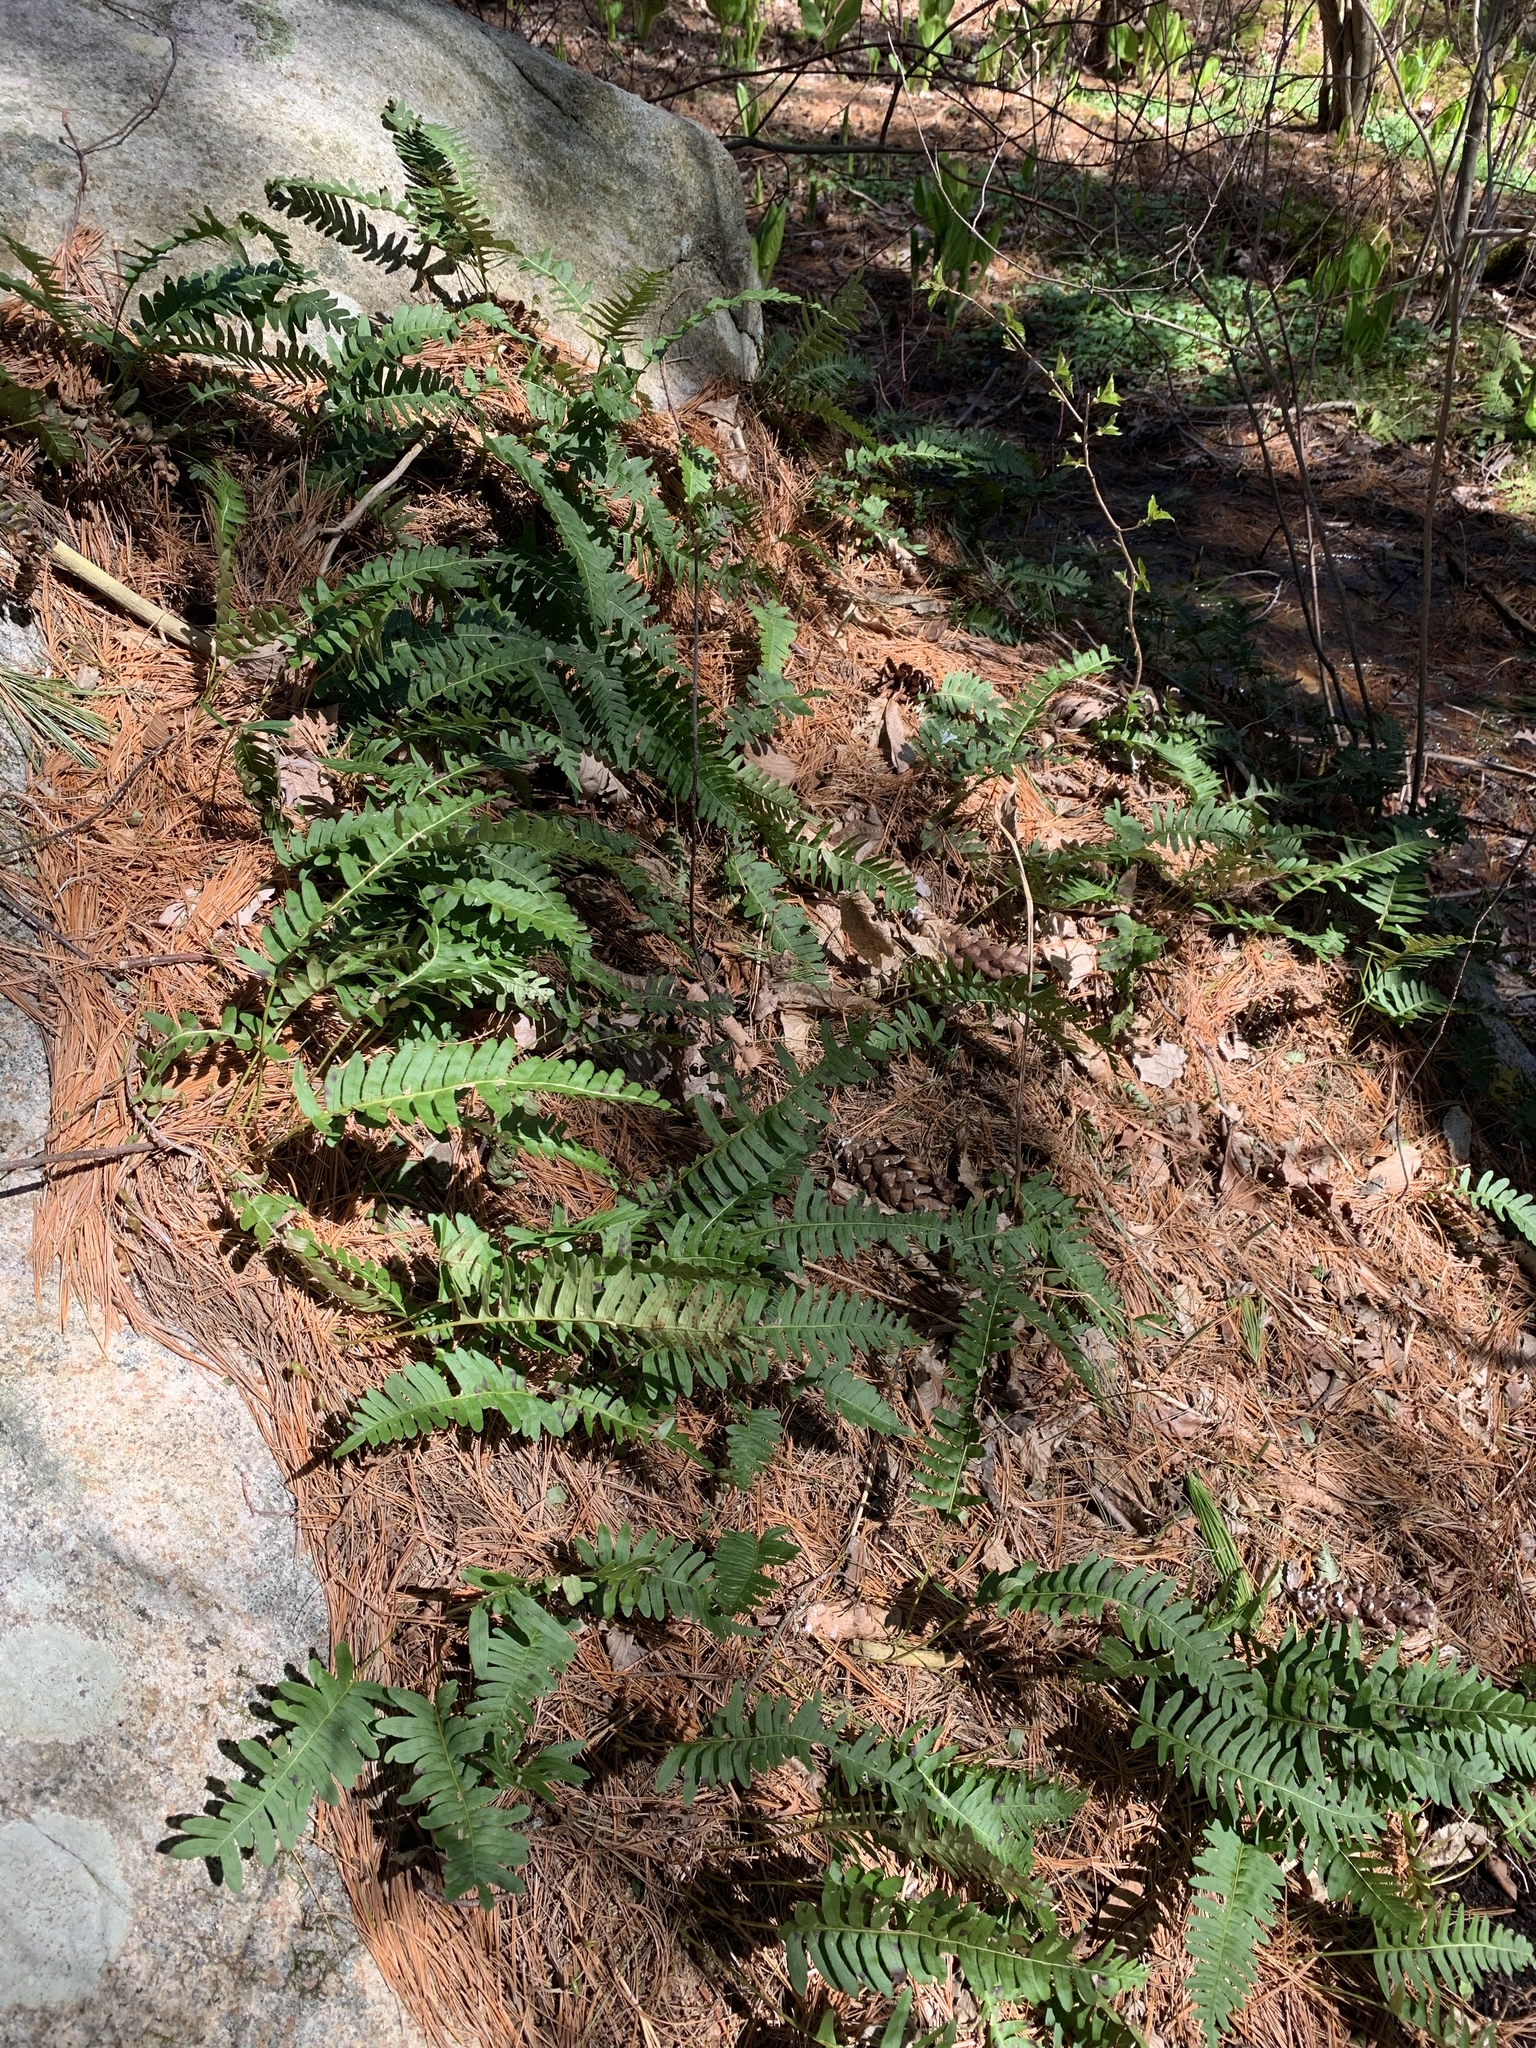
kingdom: Plantae
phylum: Tracheophyta
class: Polypodiopsida
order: Polypodiales
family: Polypodiaceae
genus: Polypodium
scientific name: Polypodium virginianum
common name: American wall fern
